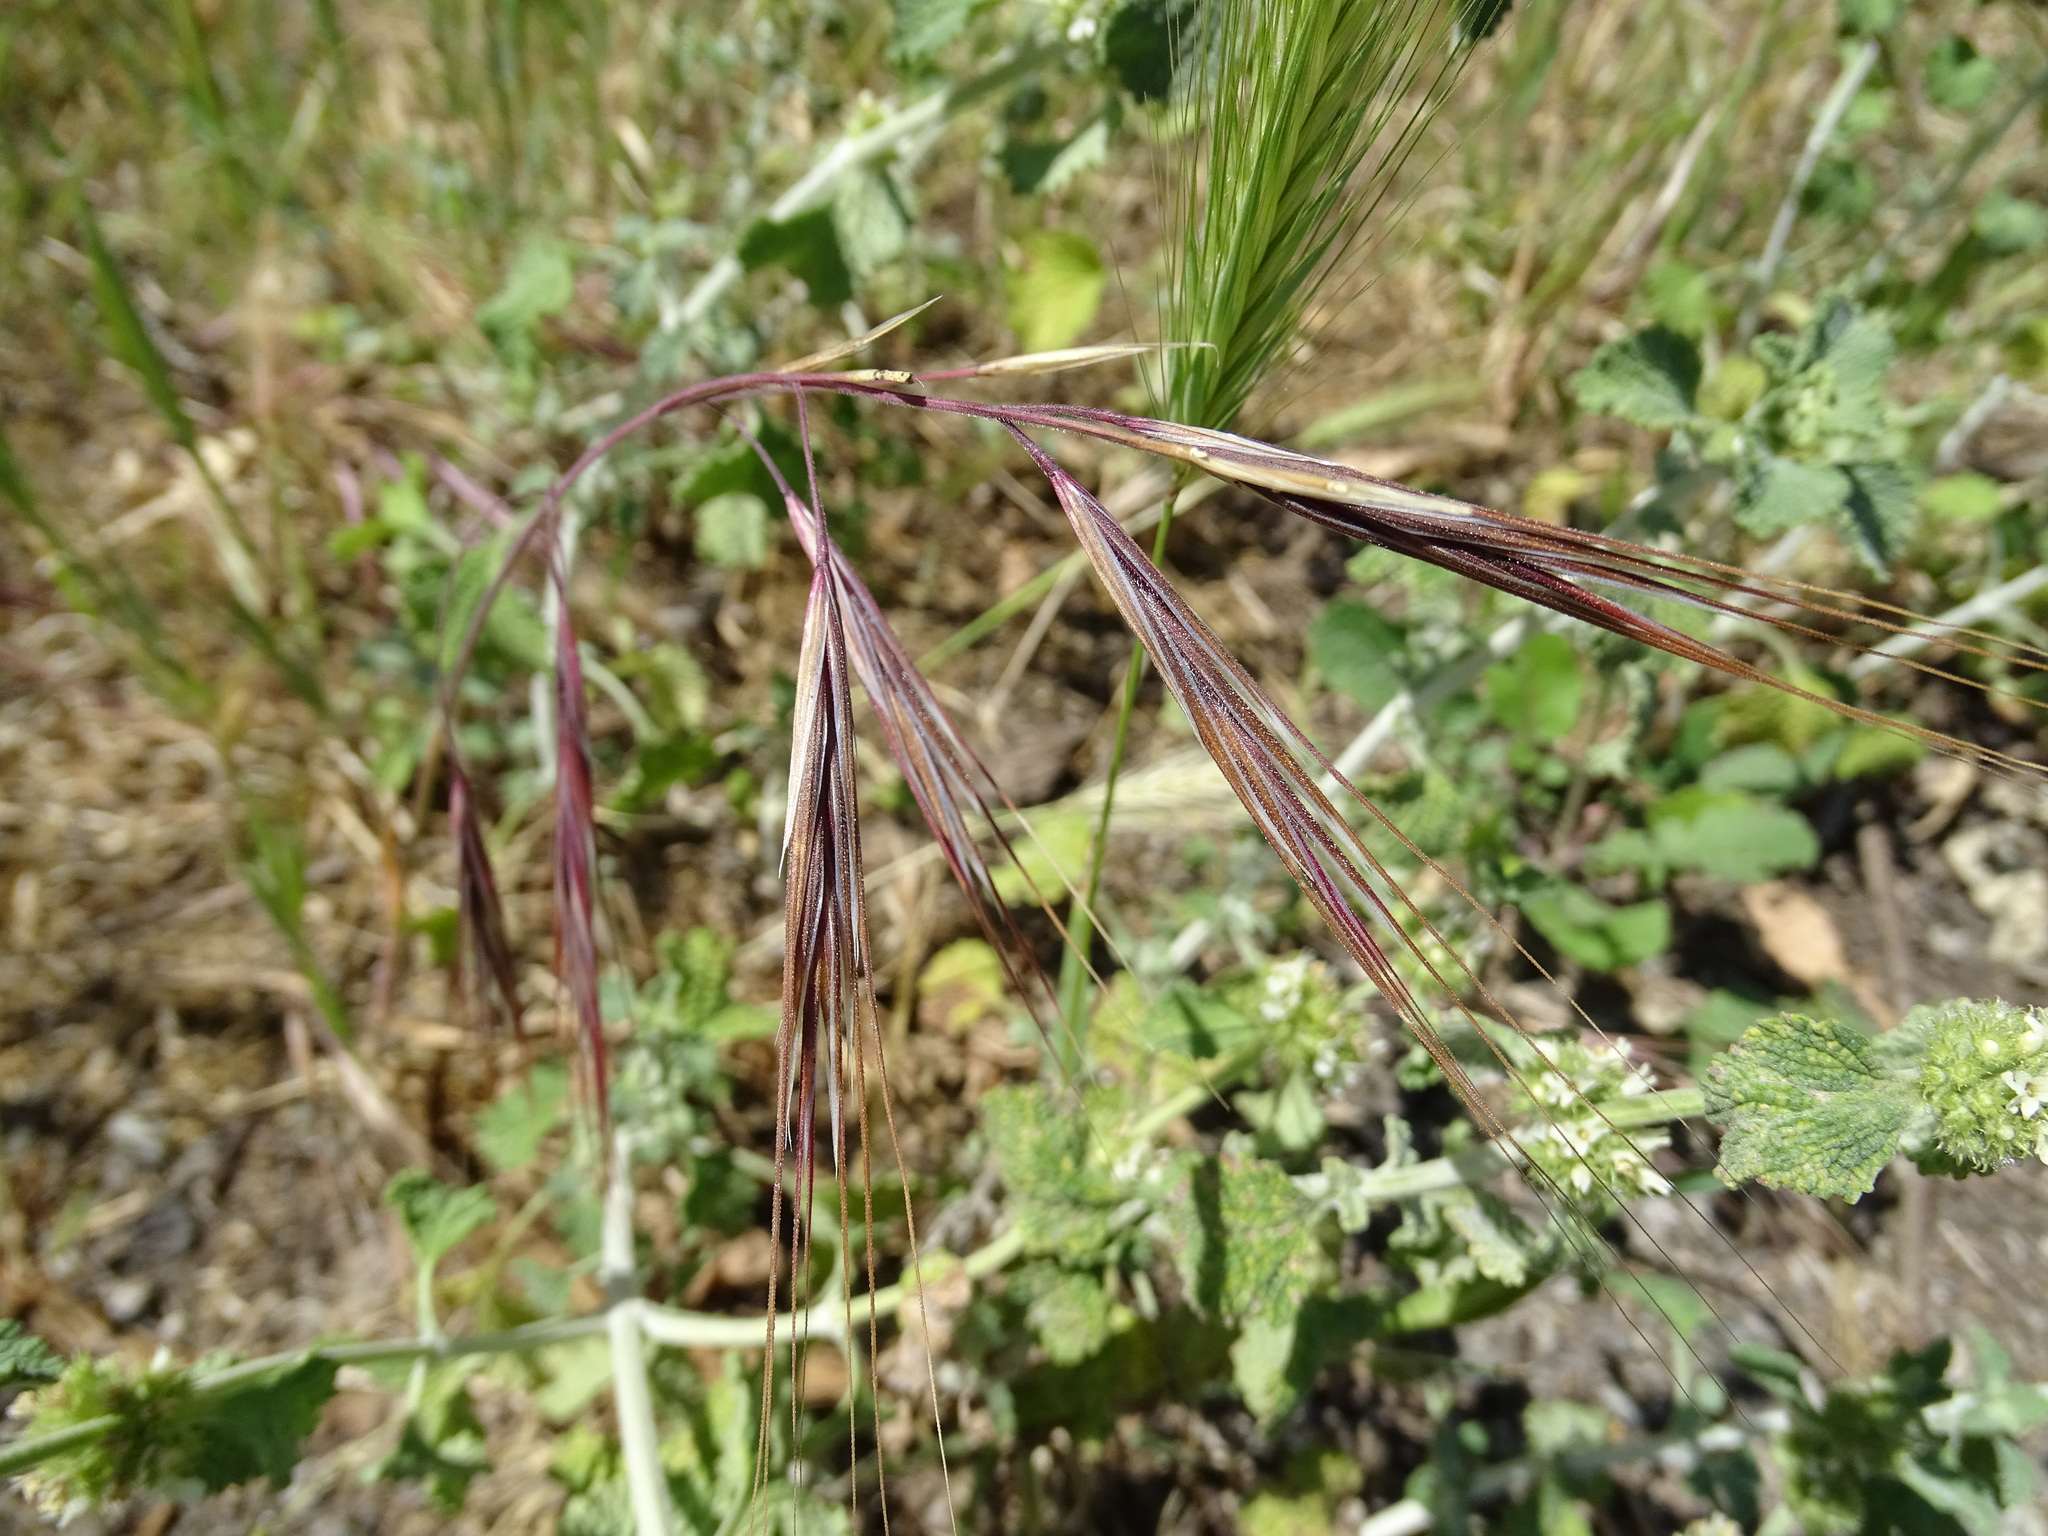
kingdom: Plantae
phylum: Tracheophyta
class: Liliopsida
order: Poales
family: Poaceae
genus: Bromus
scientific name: Bromus diandrus
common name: Ripgut brome
